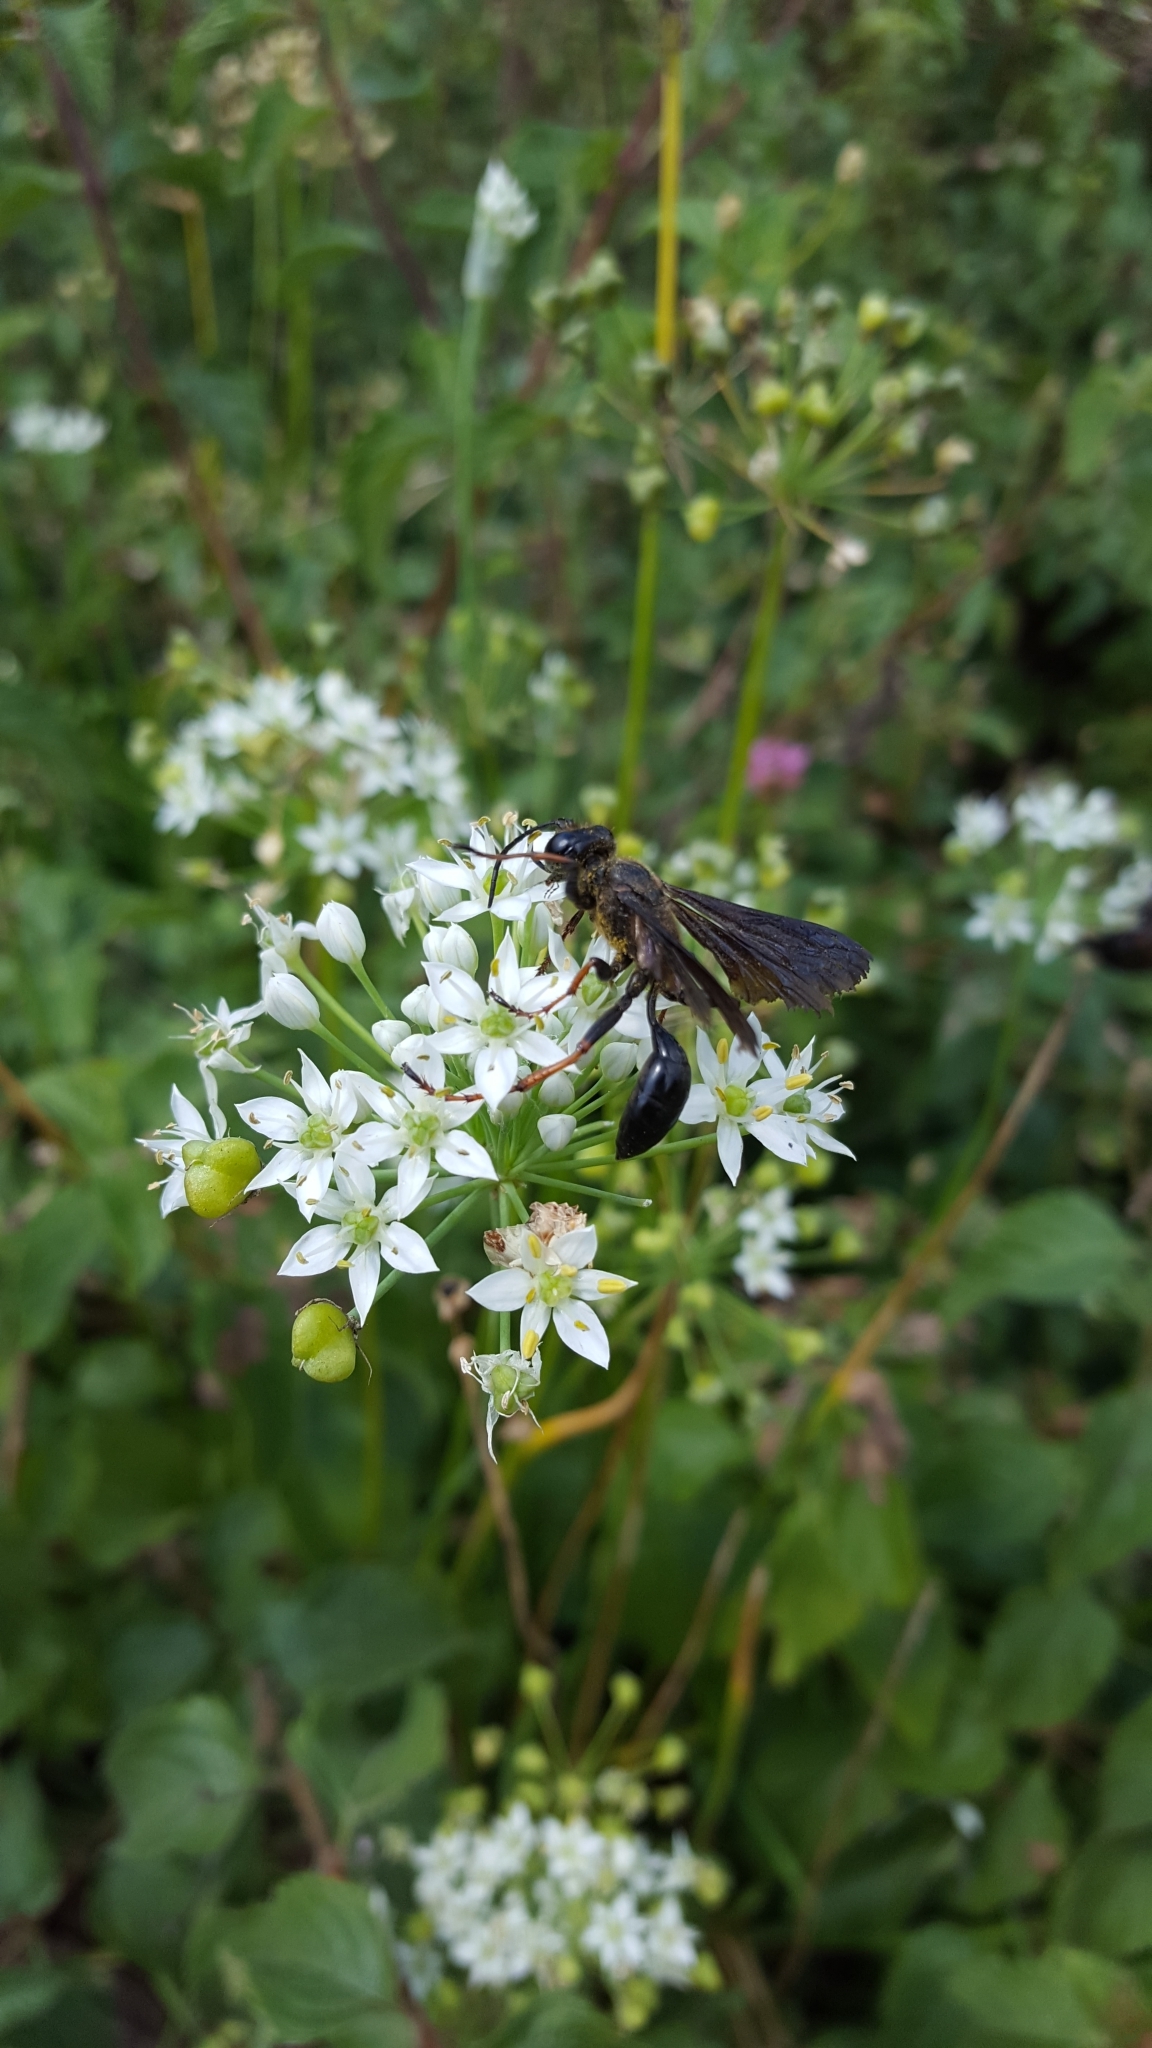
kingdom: Animalia
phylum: Arthropoda
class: Insecta
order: Hymenoptera
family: Sphecidae
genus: Isodontia
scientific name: Isodontia auripes
